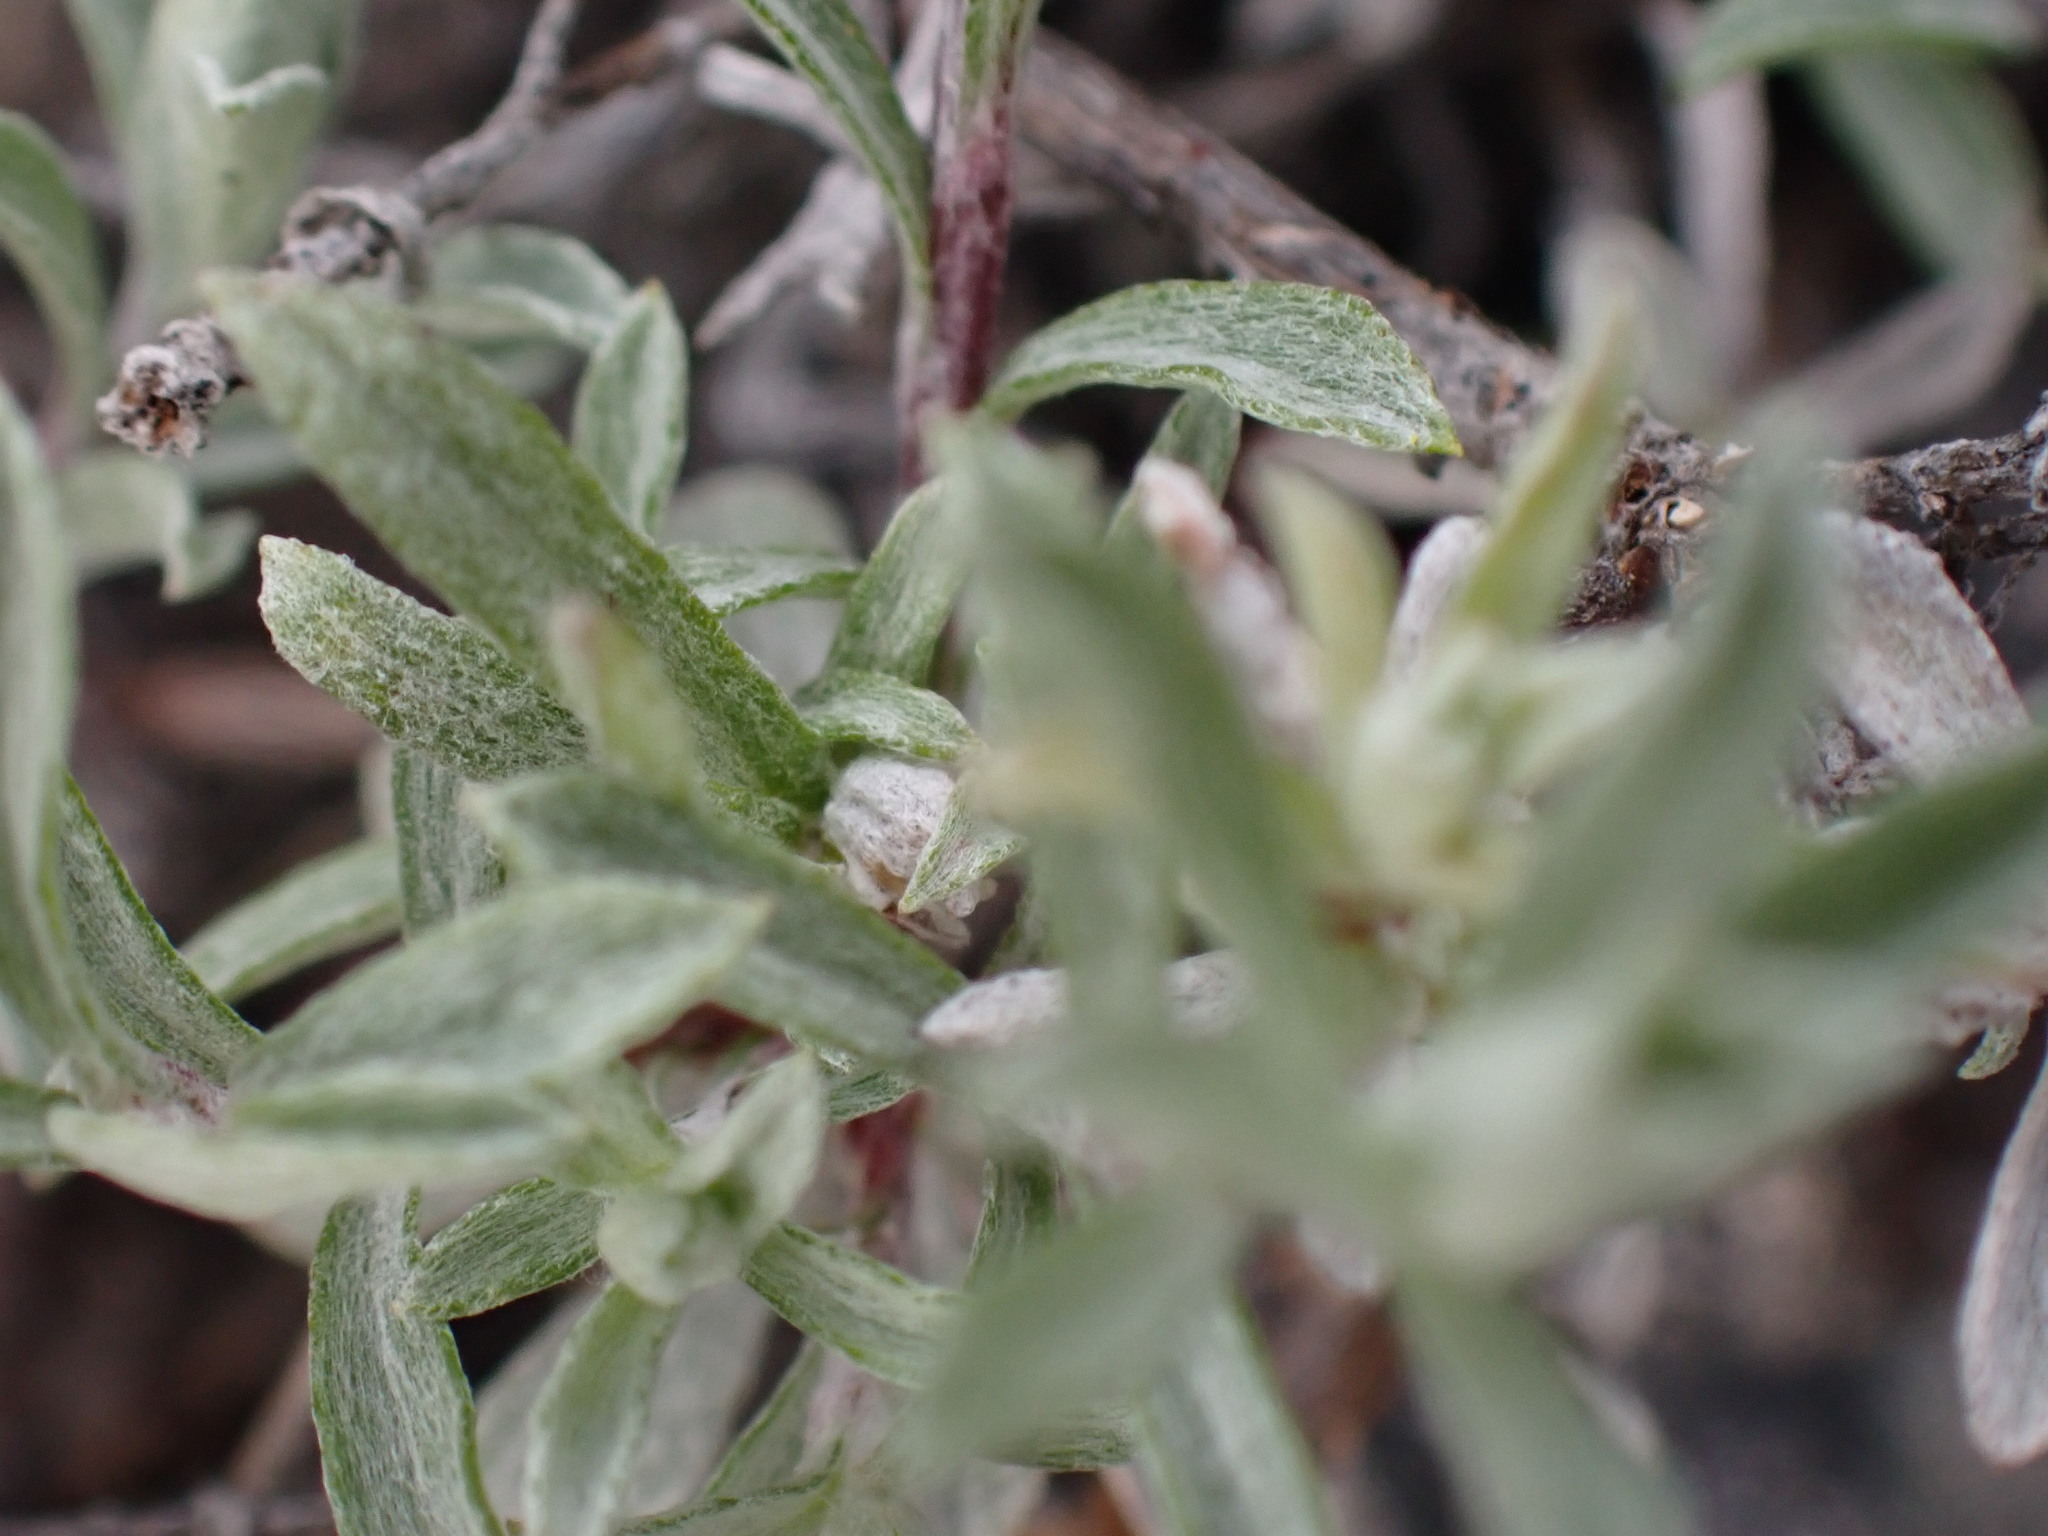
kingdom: Plantae
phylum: Tracheophyta
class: Magnoliopsida
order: Asterales
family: Asteraceae
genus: Antennaria
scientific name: Antennaria umbrinella
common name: Brown pussytoes
